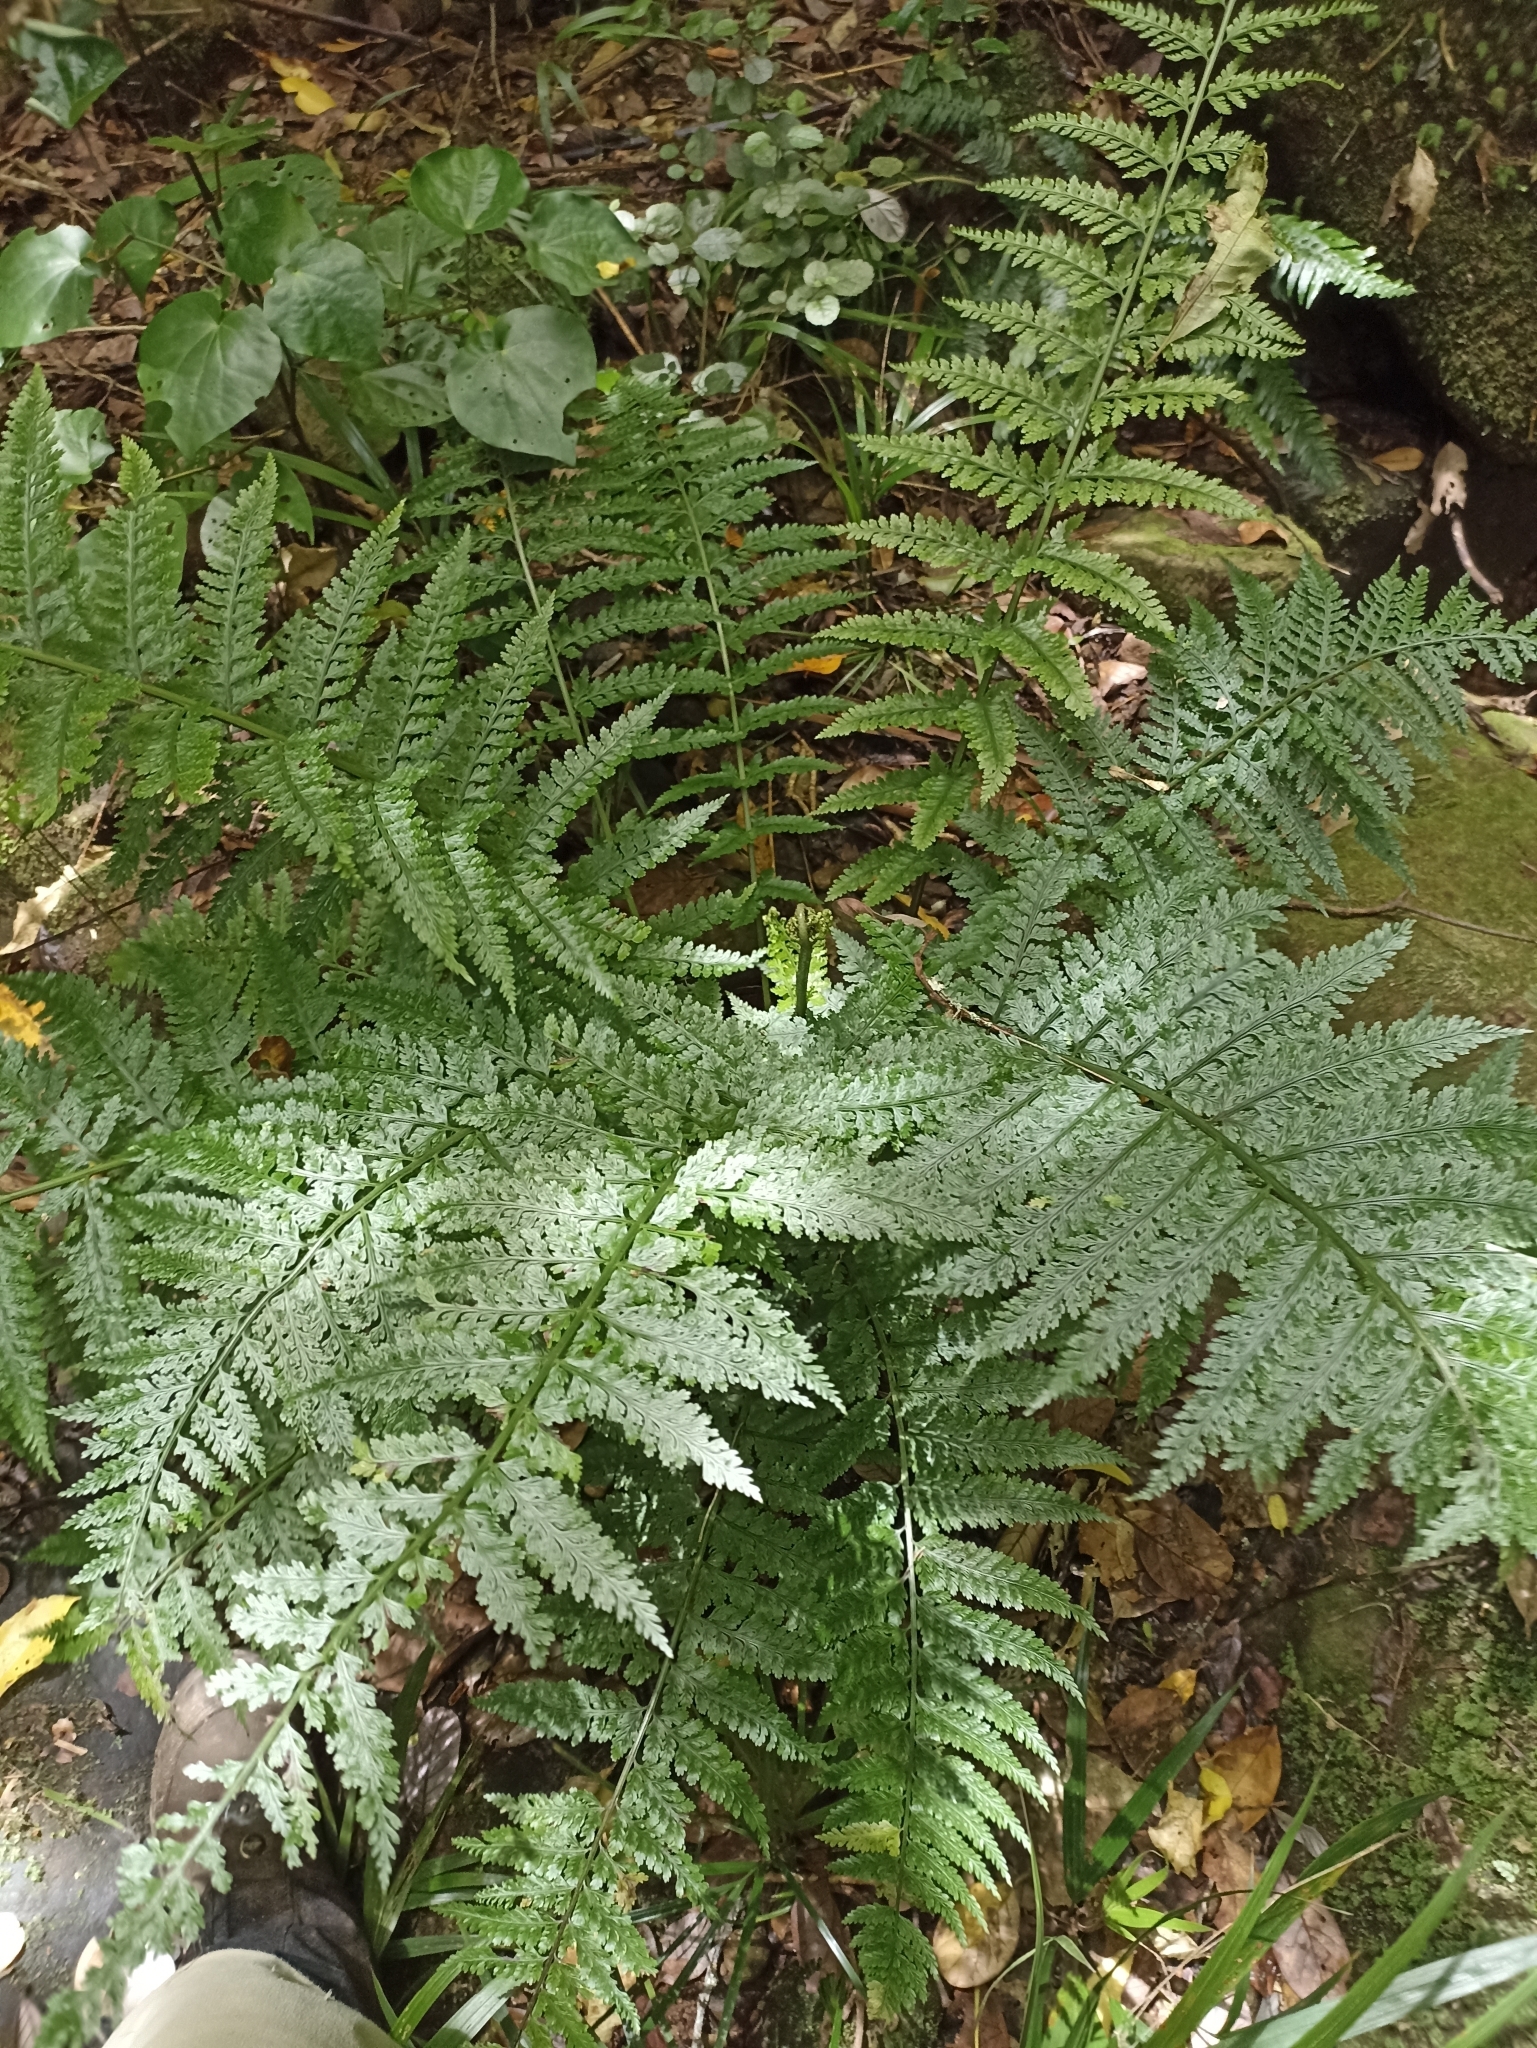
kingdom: Plantae
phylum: Tracheophyta
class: Polypodiopsida
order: Polypodiales
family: Aspleniaceae
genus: Asplenium
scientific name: Asplenium bulbiferum
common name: Mother fern
